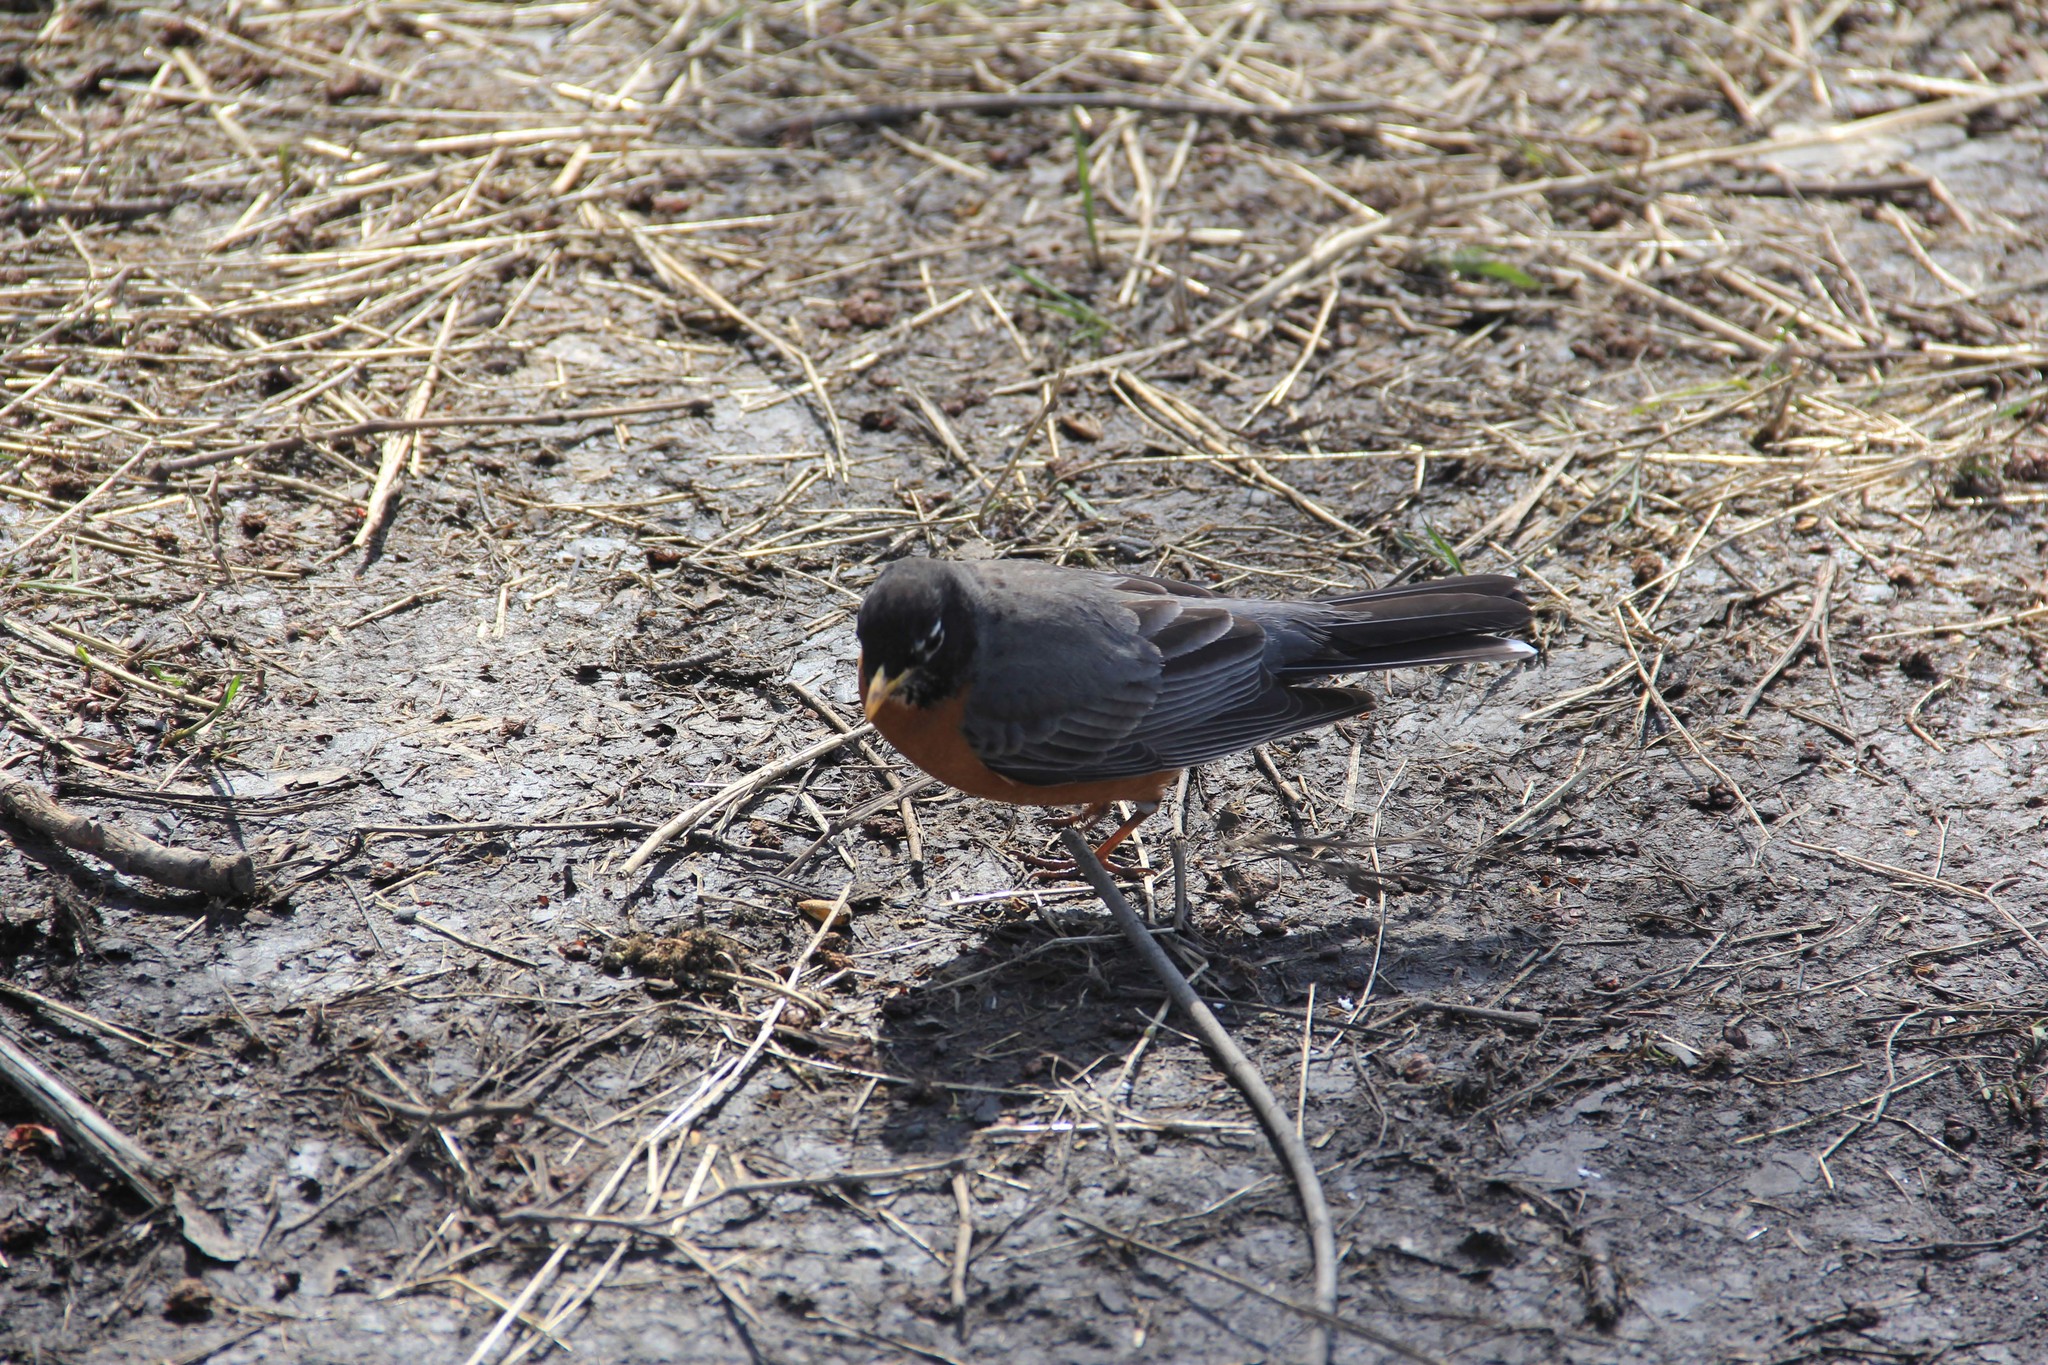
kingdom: Animalia
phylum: Chordata
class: Aves
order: Passeriformes
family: Turdidae
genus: Turdus
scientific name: Turdus migratorius
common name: American robin
